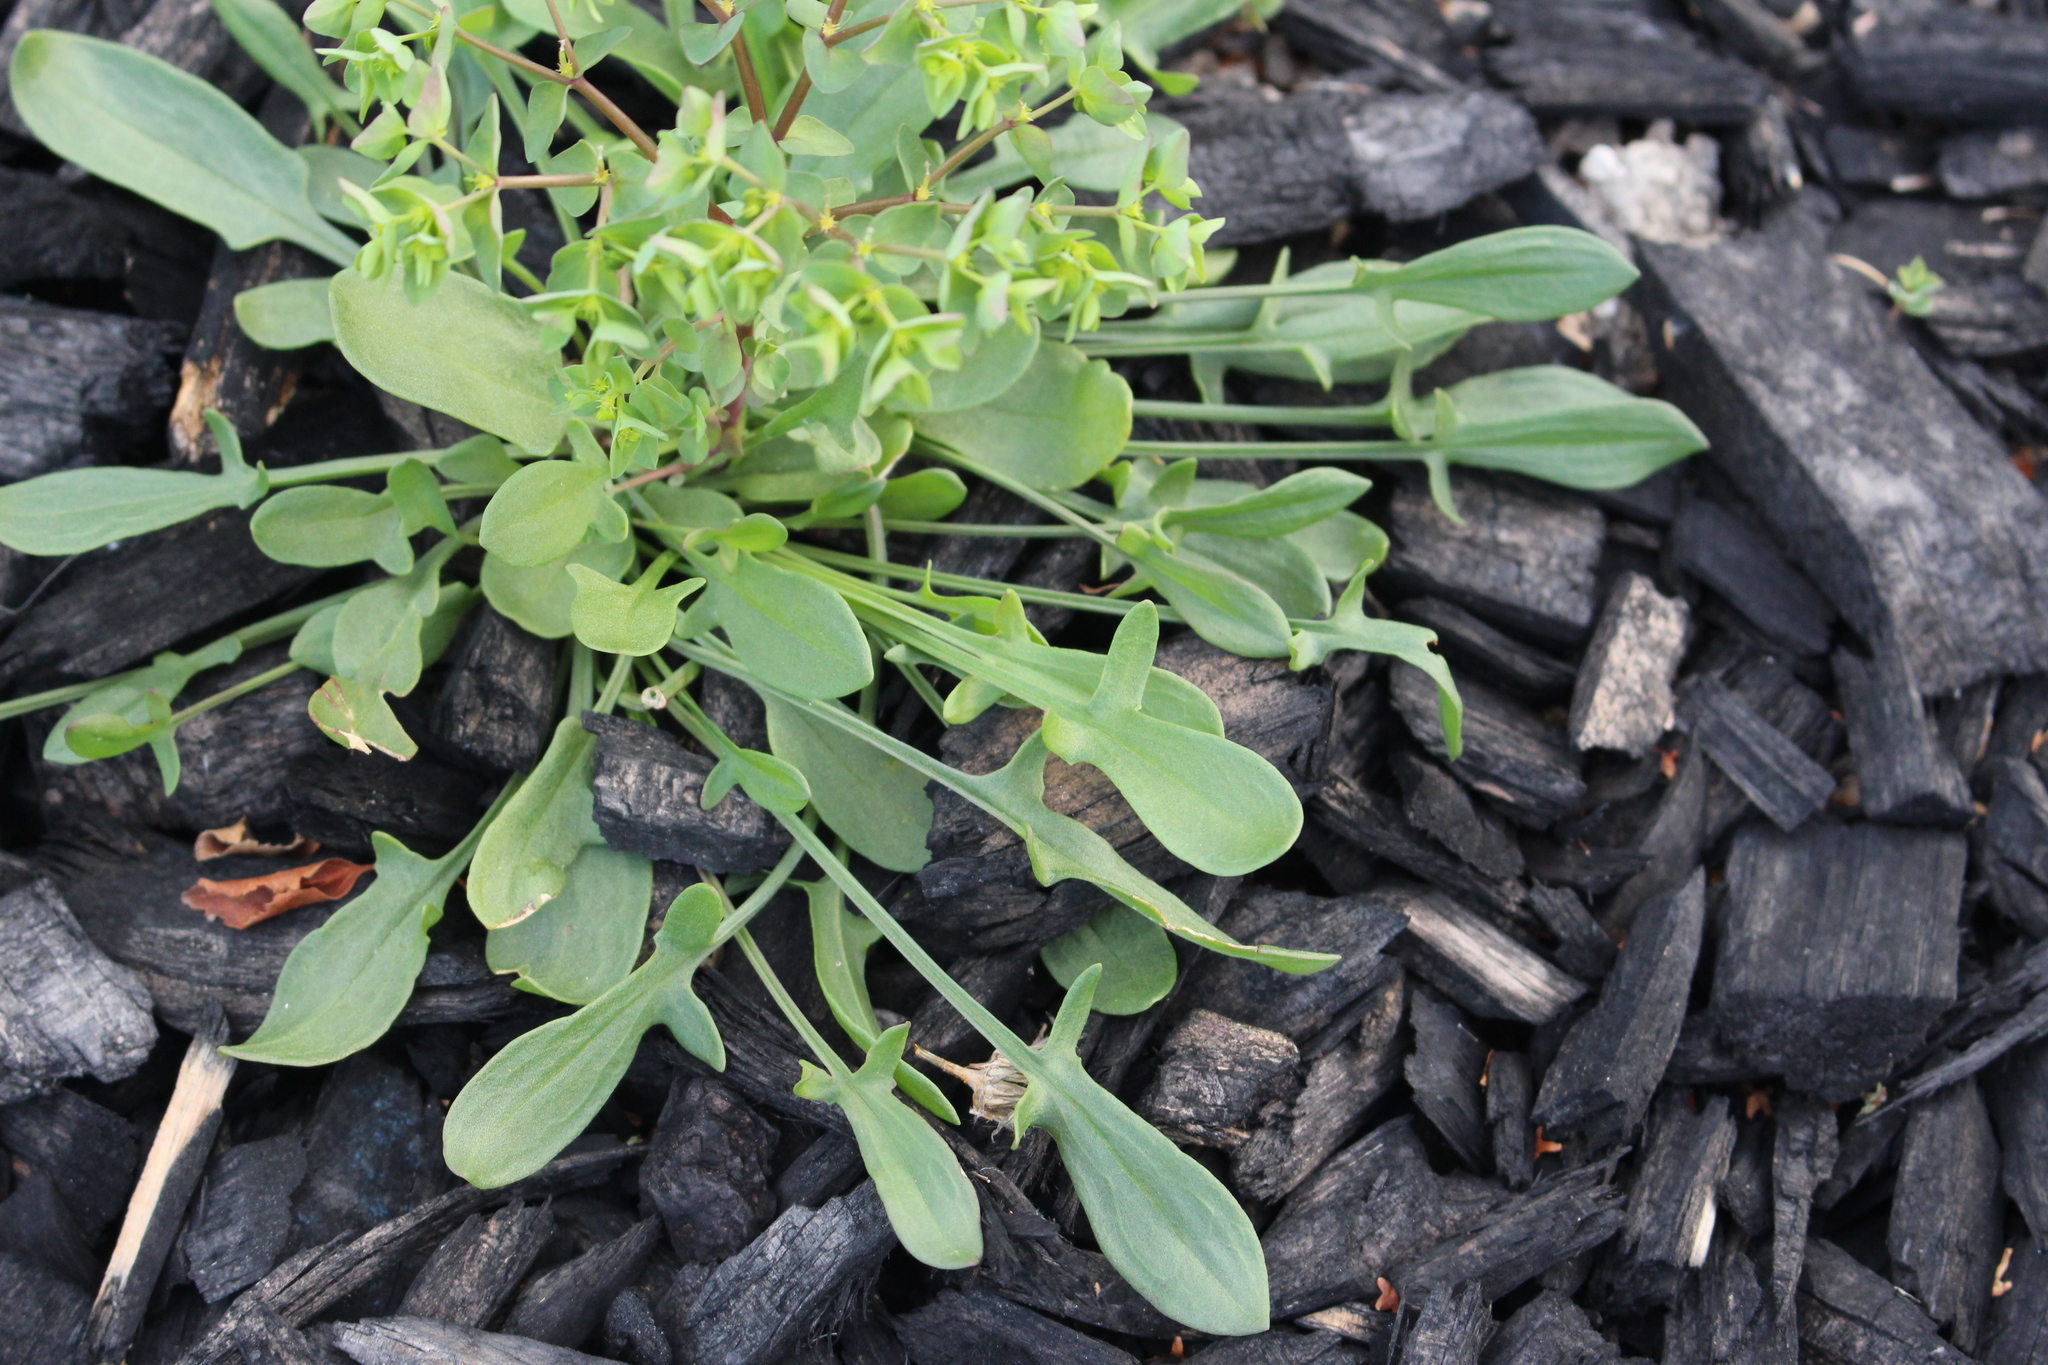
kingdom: Plantae
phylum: Tracheophyta
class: Magnoliopsida
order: Caryophyllales
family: Polygonaceae
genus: Rumex
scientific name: Rumex acetosella
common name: Common sheep sorrel
